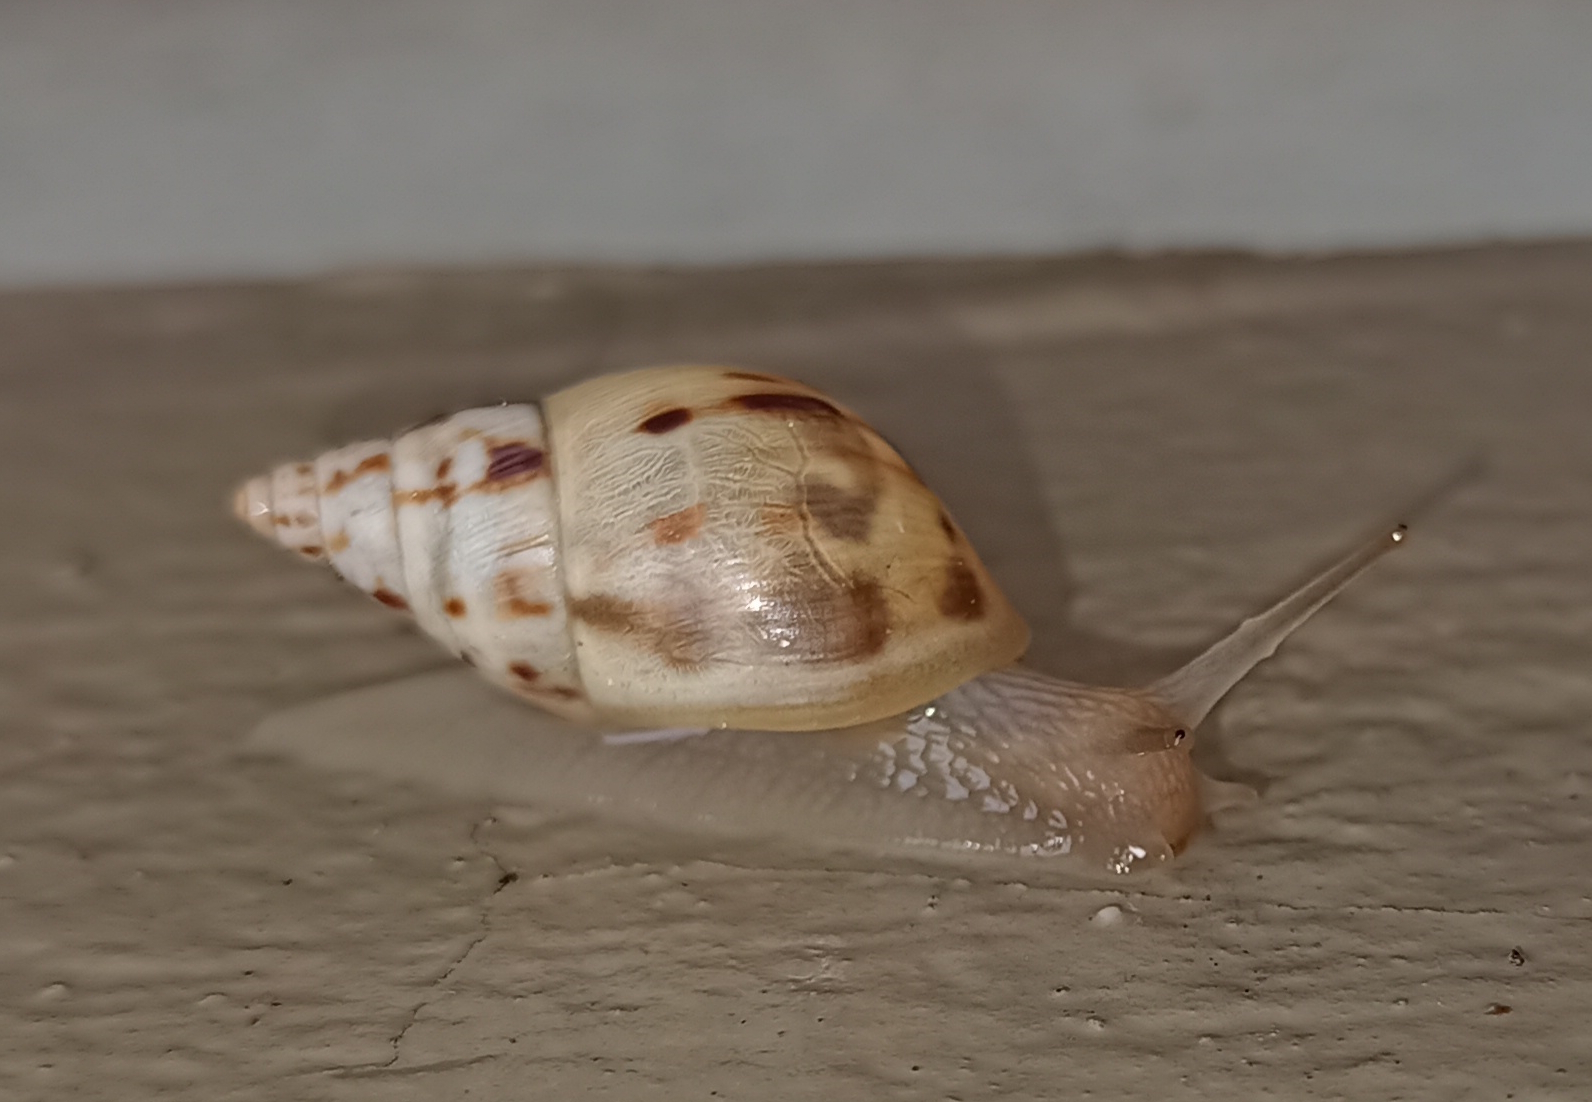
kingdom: Animalia
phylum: Mollusca
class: Gastropoda
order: Stylommatophora
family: Bulimulidae
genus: Drymaeus
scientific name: Drymaeus papyraceus
